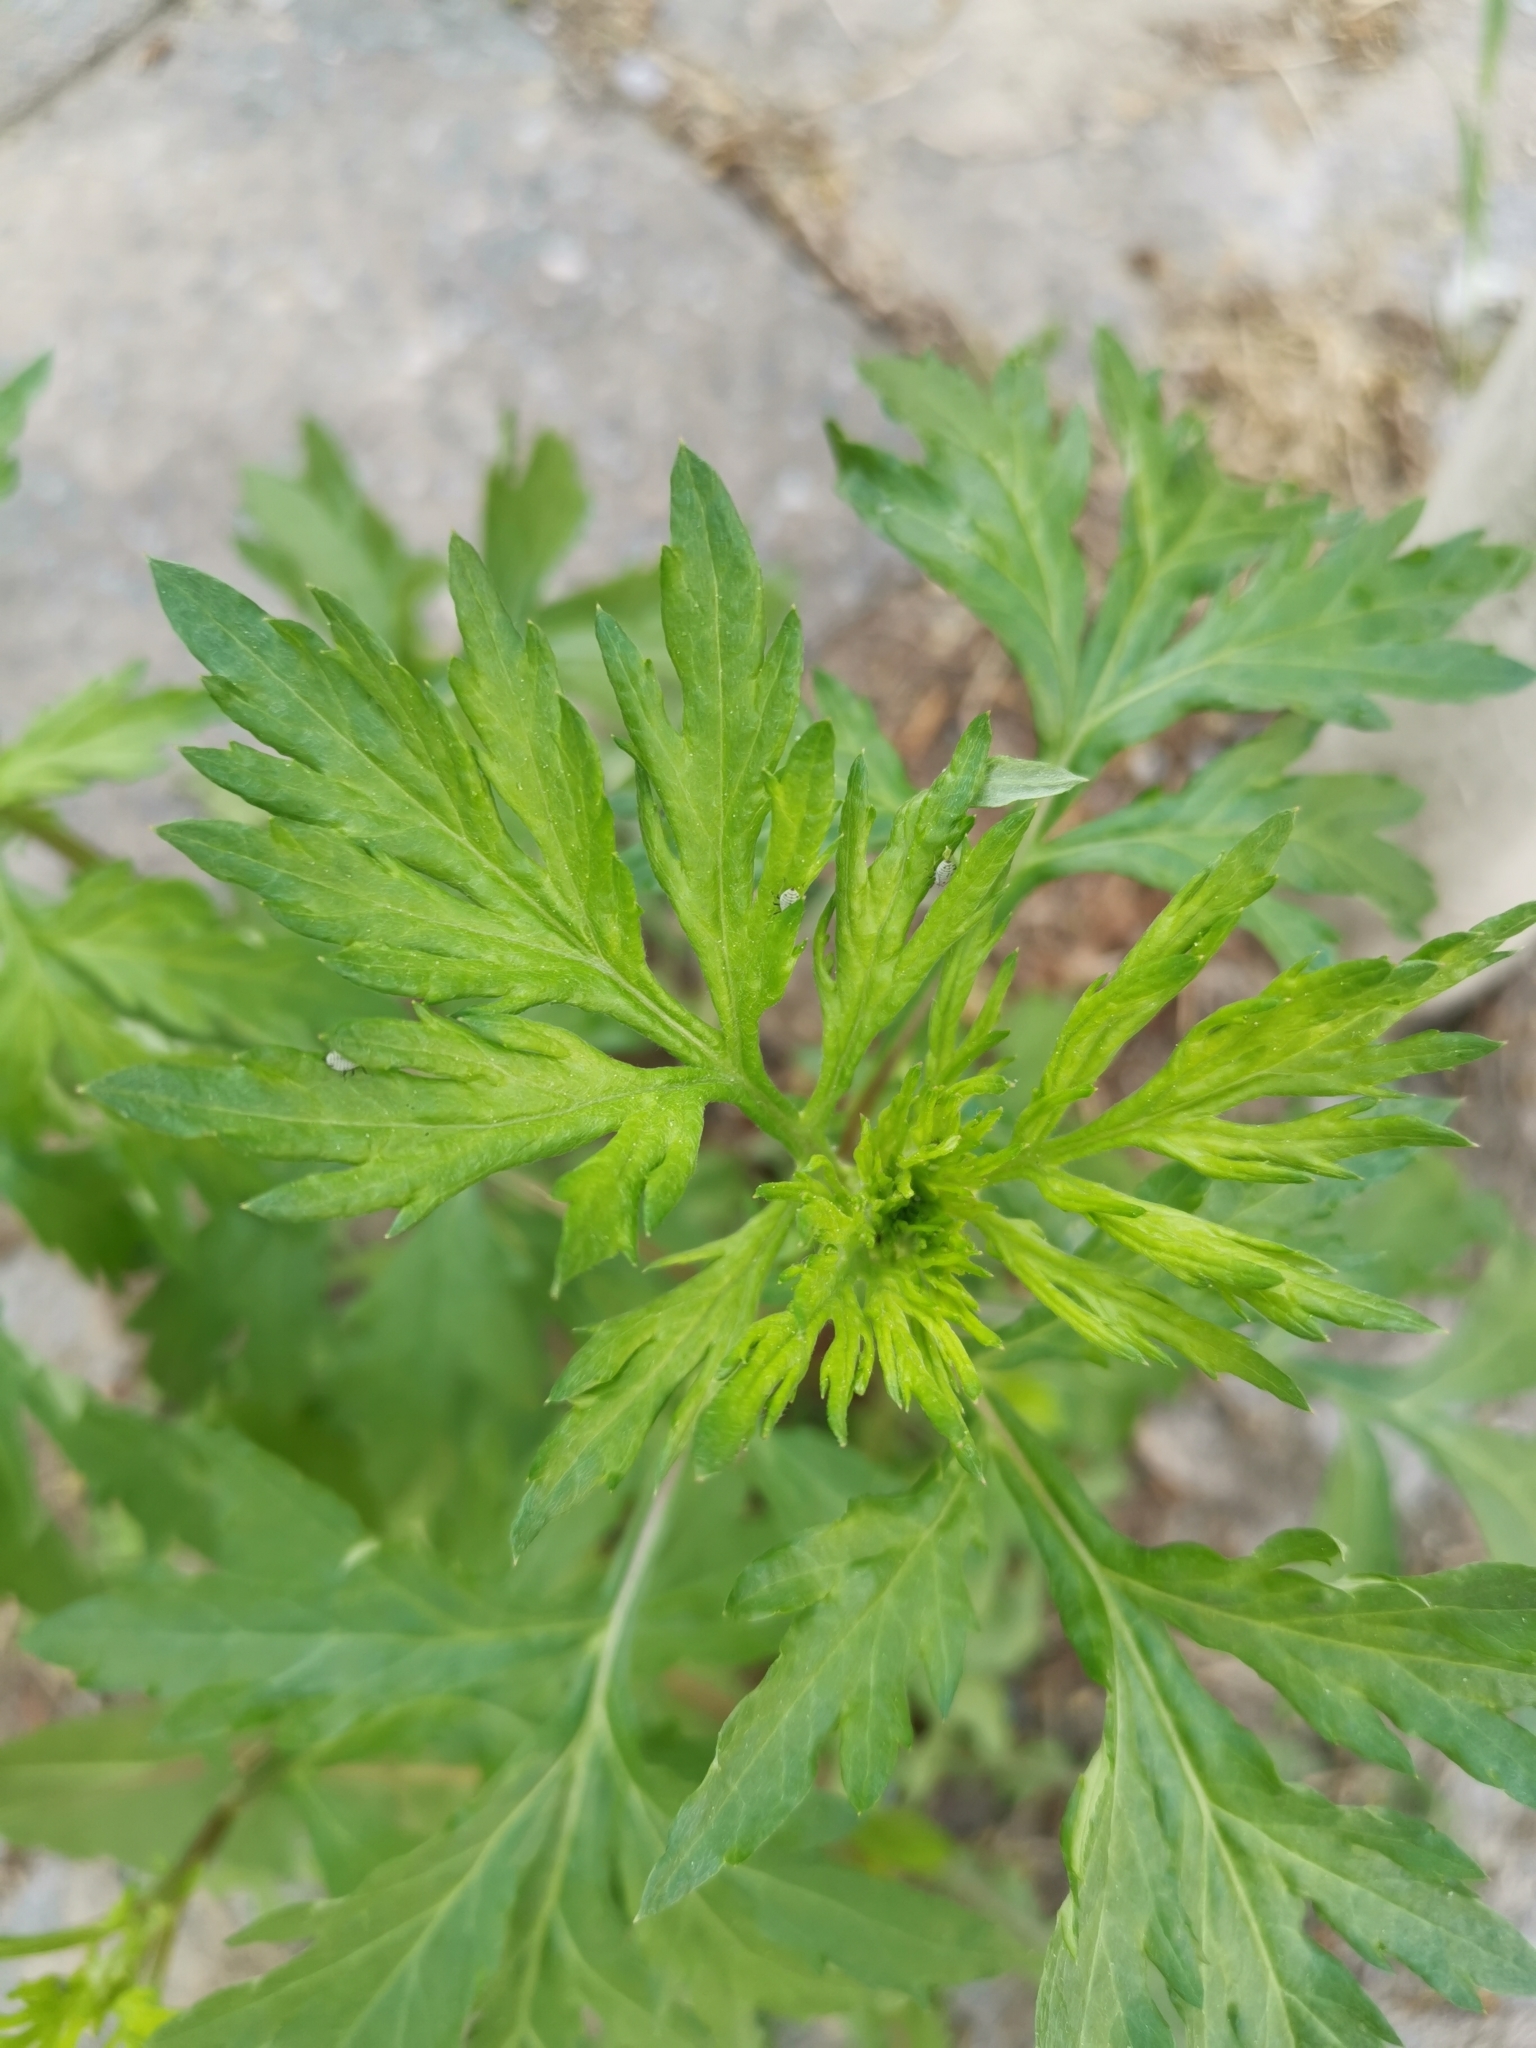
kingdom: Plantae
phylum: Tracheophyta
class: Magnoliopsida
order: Asterales
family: Asteraceae
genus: Artemisia
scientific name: Artemisia vulgaris
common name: Mugwort
